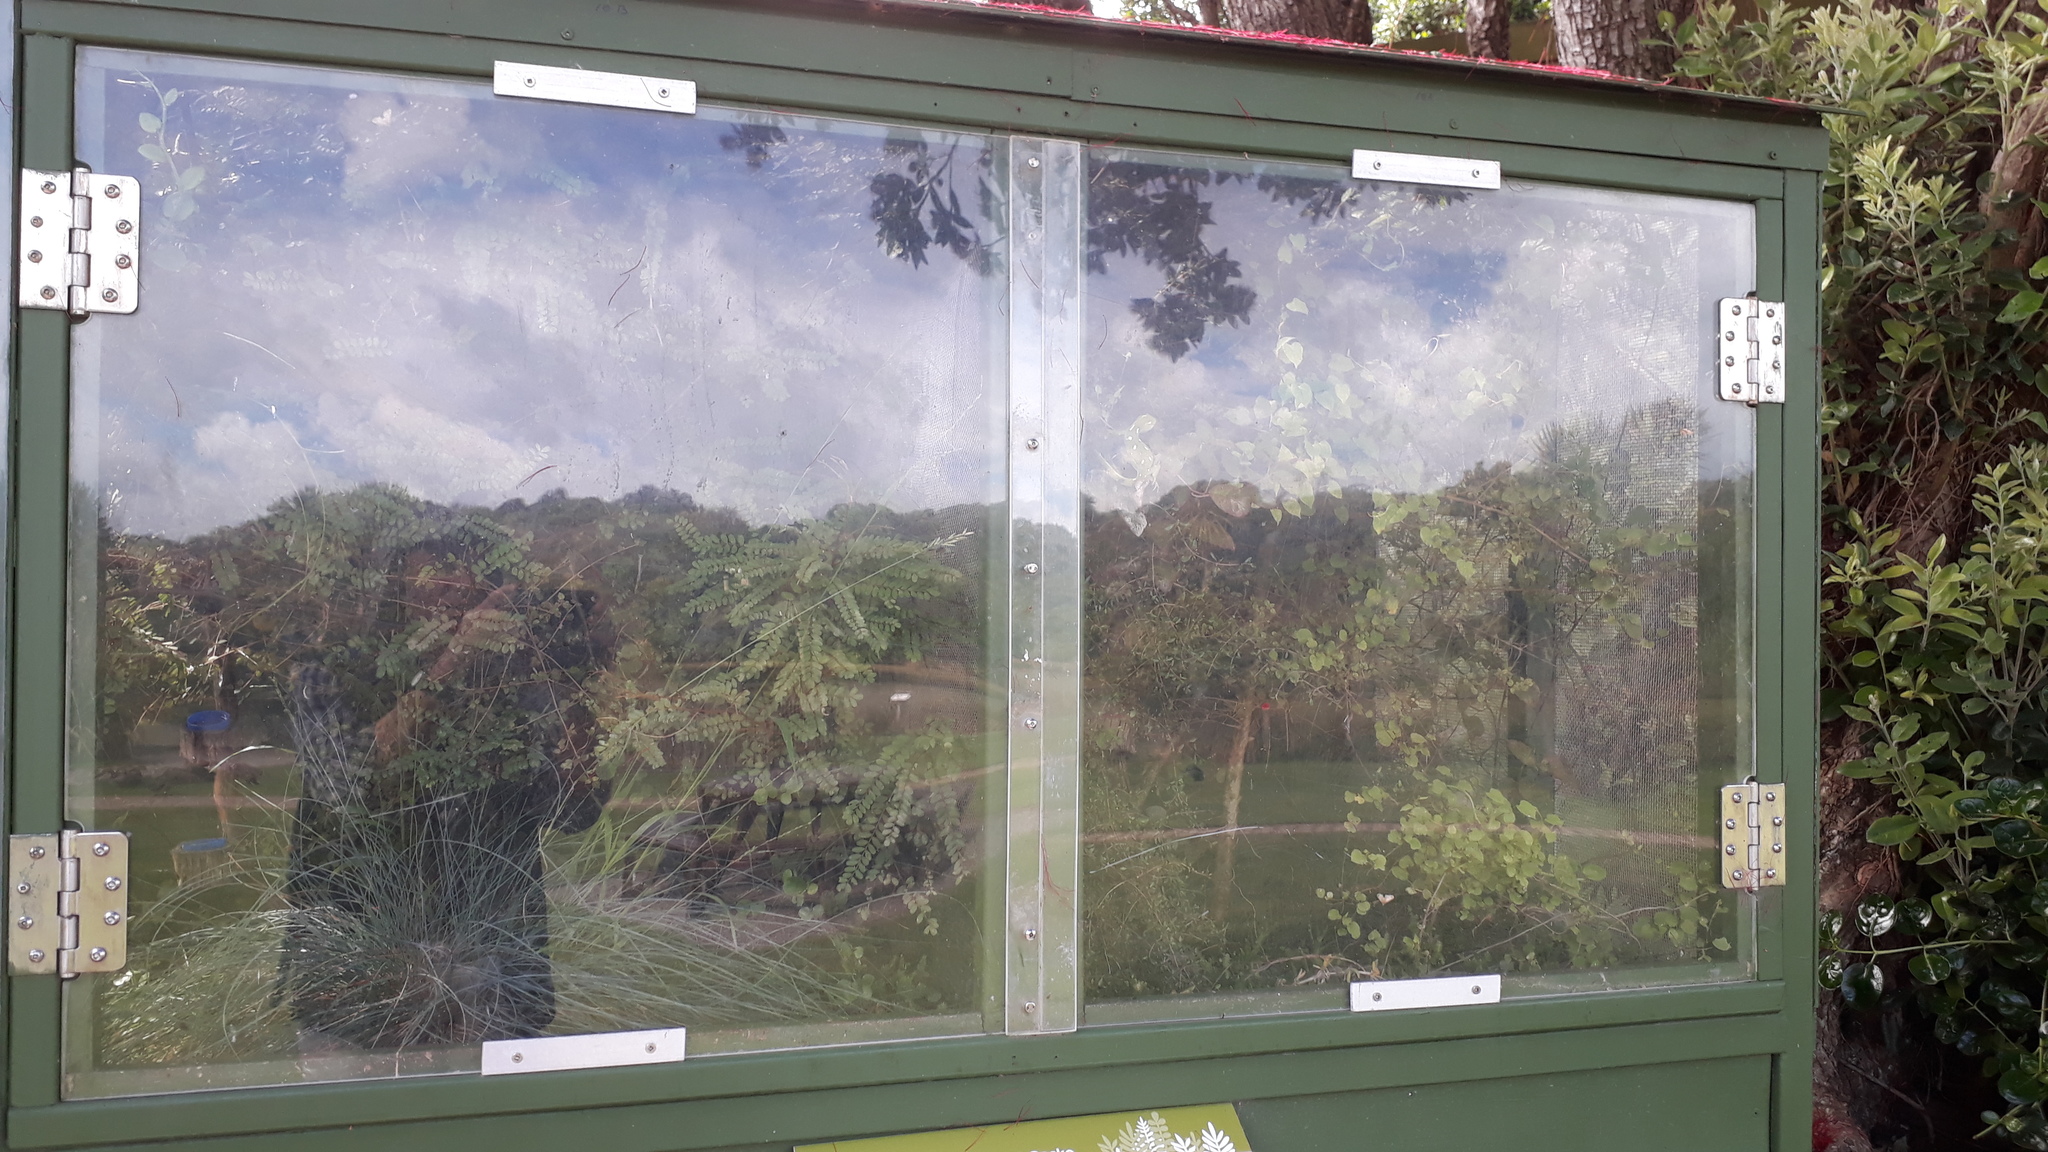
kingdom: Animalia
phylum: Arthropoda
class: Insecta
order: Hemiptera
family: Aphididae
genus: Aphis
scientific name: Aphis nerii
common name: Oleander aphid
